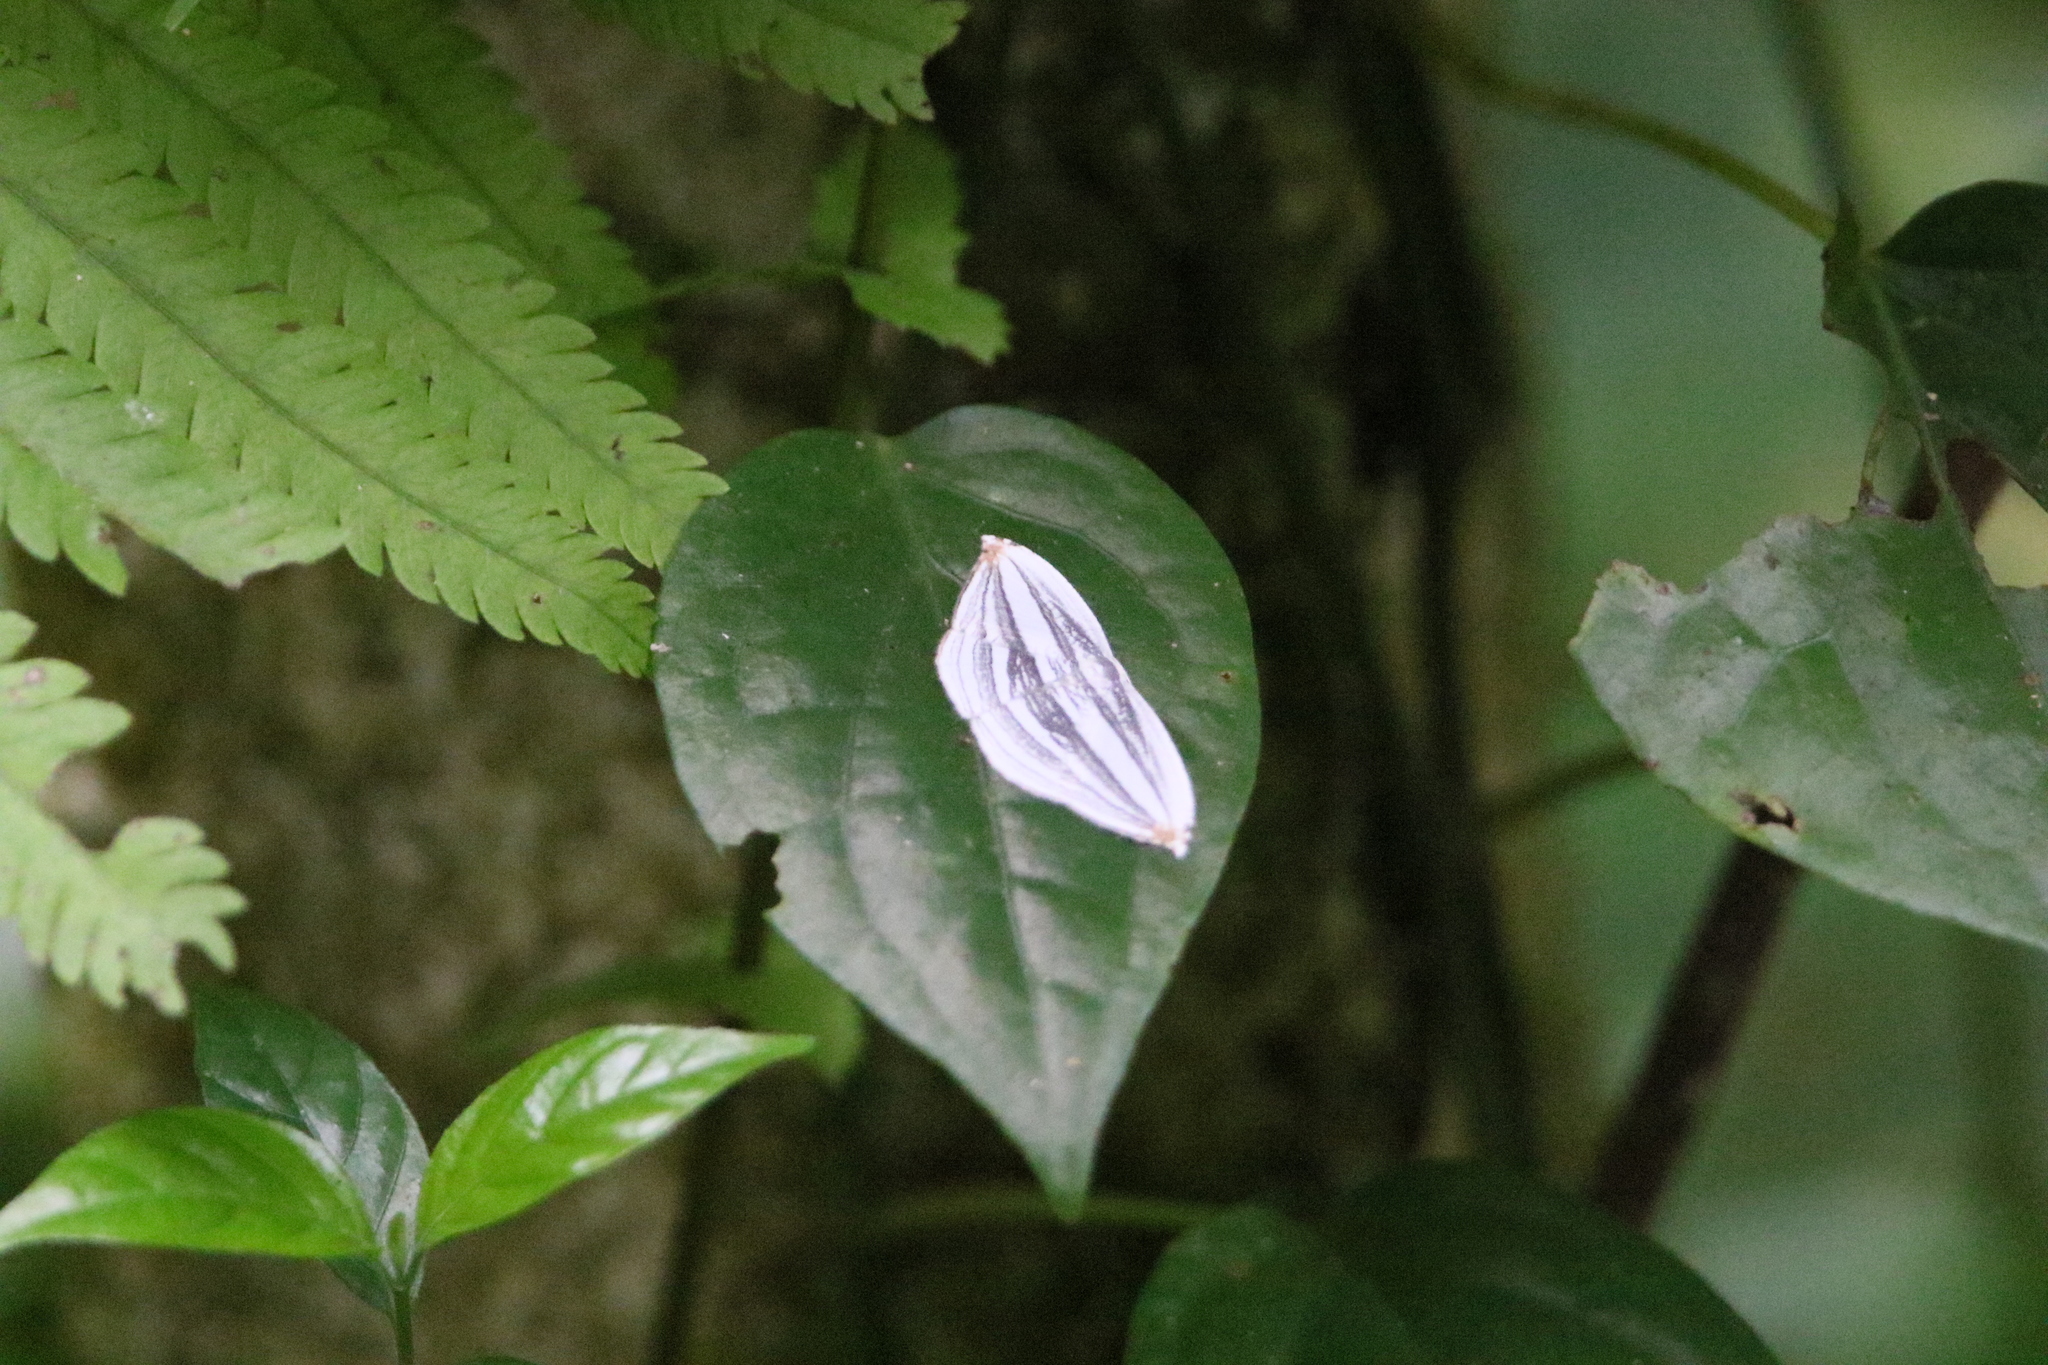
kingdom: Animalia
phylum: Arthropoda
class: Insecta
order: Lepidoptera
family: Uraniidae
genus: Acropteris
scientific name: Acropteris iphiata
